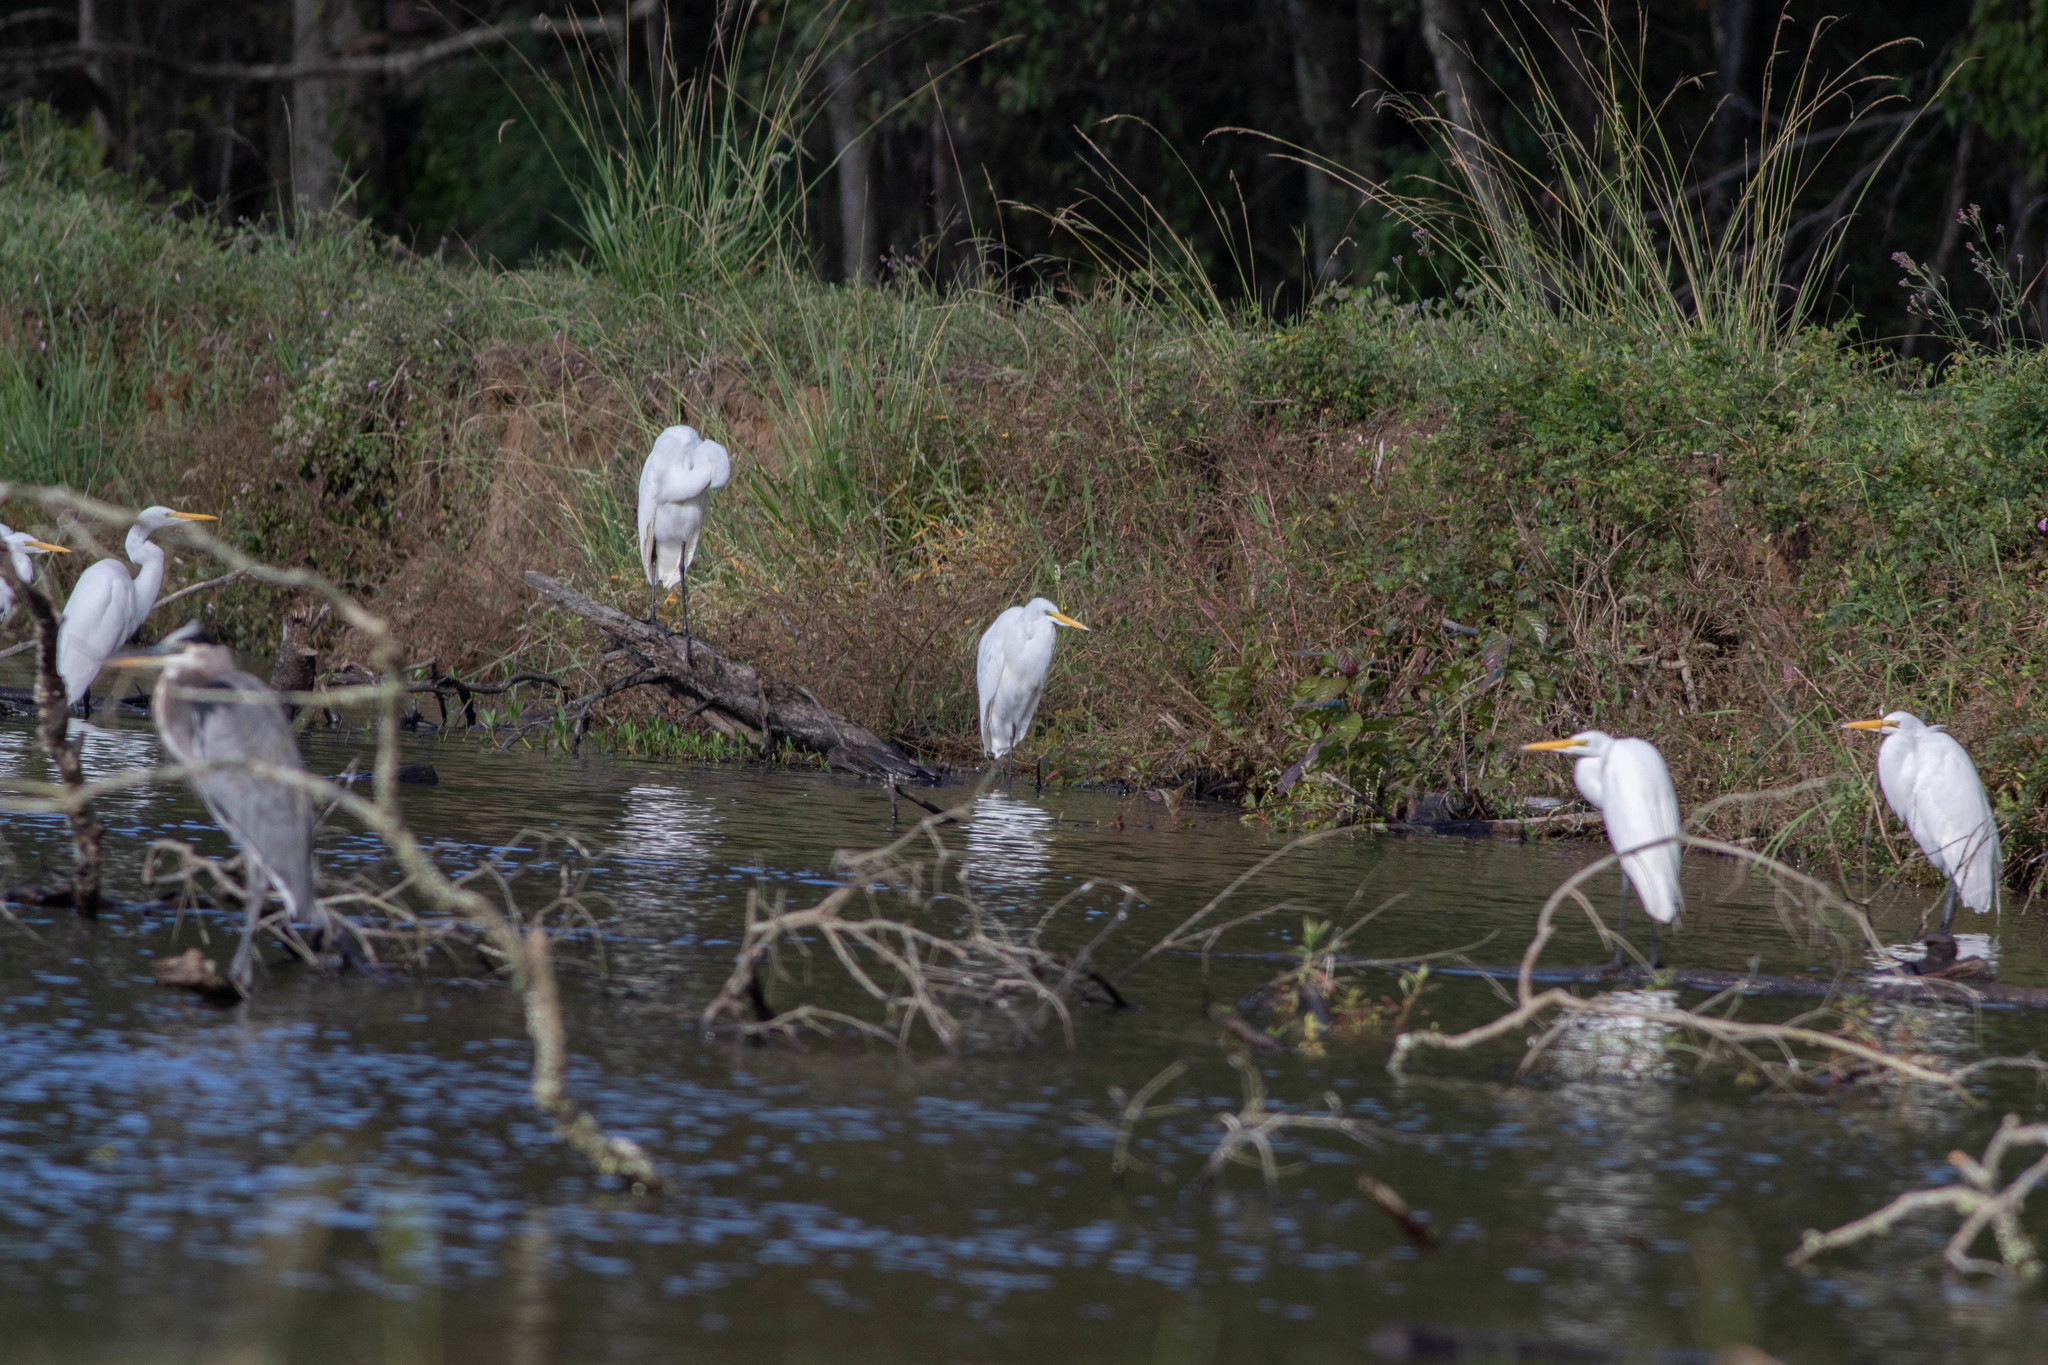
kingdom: Animalia
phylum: Chordata
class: Aves
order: Pelecaniformes
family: Ardeidae
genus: Ardea
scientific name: Ardea alba
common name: Great egret
